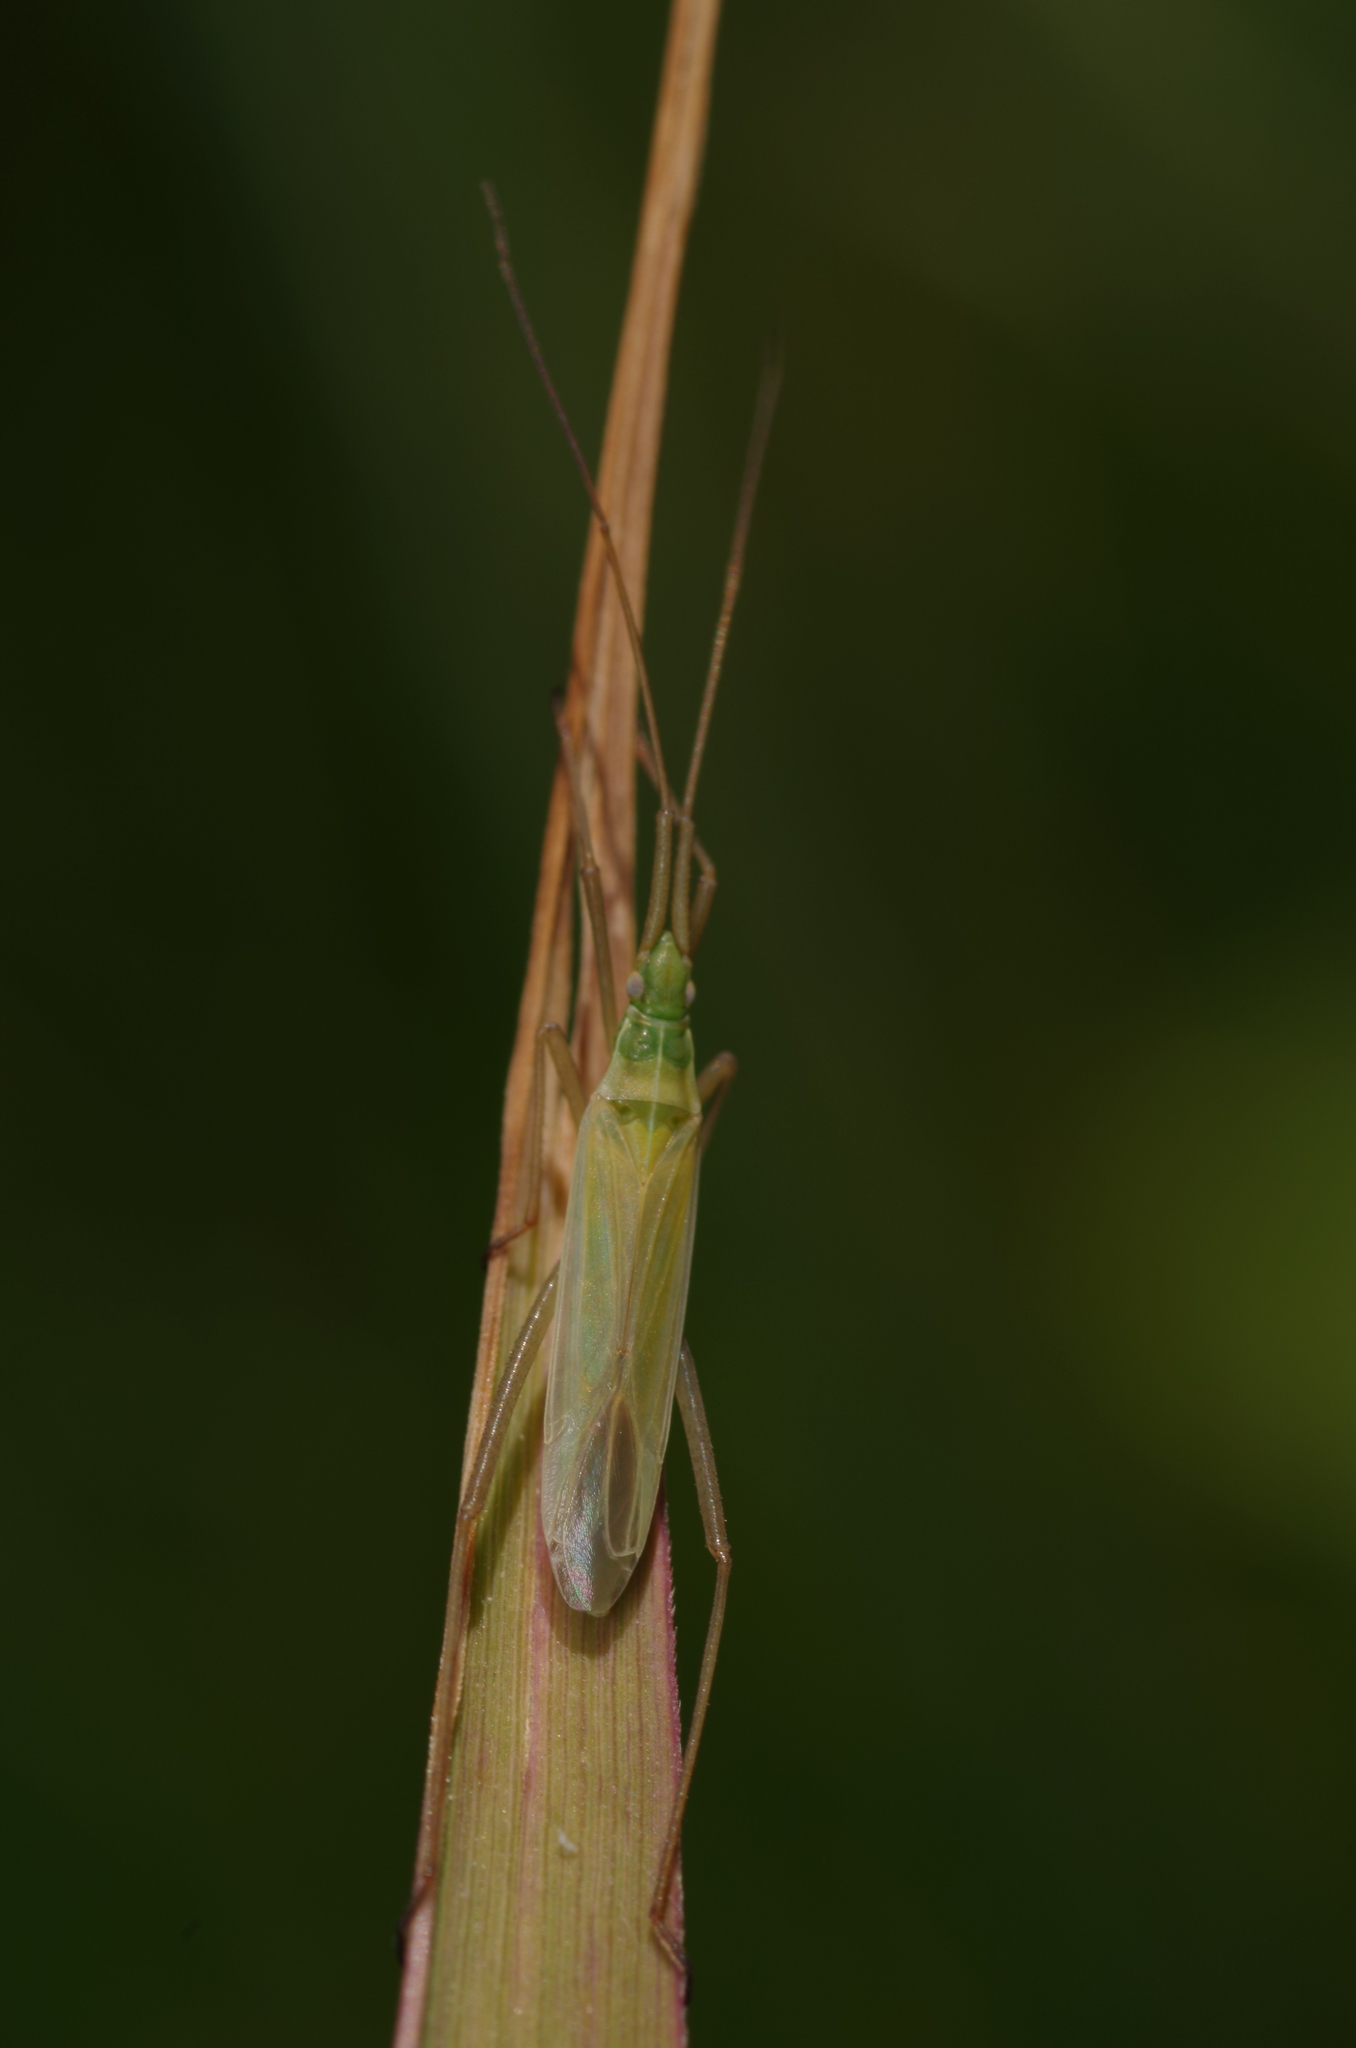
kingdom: Animalia
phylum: Arthropoda
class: Insecta
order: Hemiptera
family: Miridae
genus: Megaloceroea
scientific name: Megaloceroea recticornis
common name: Plant bug
